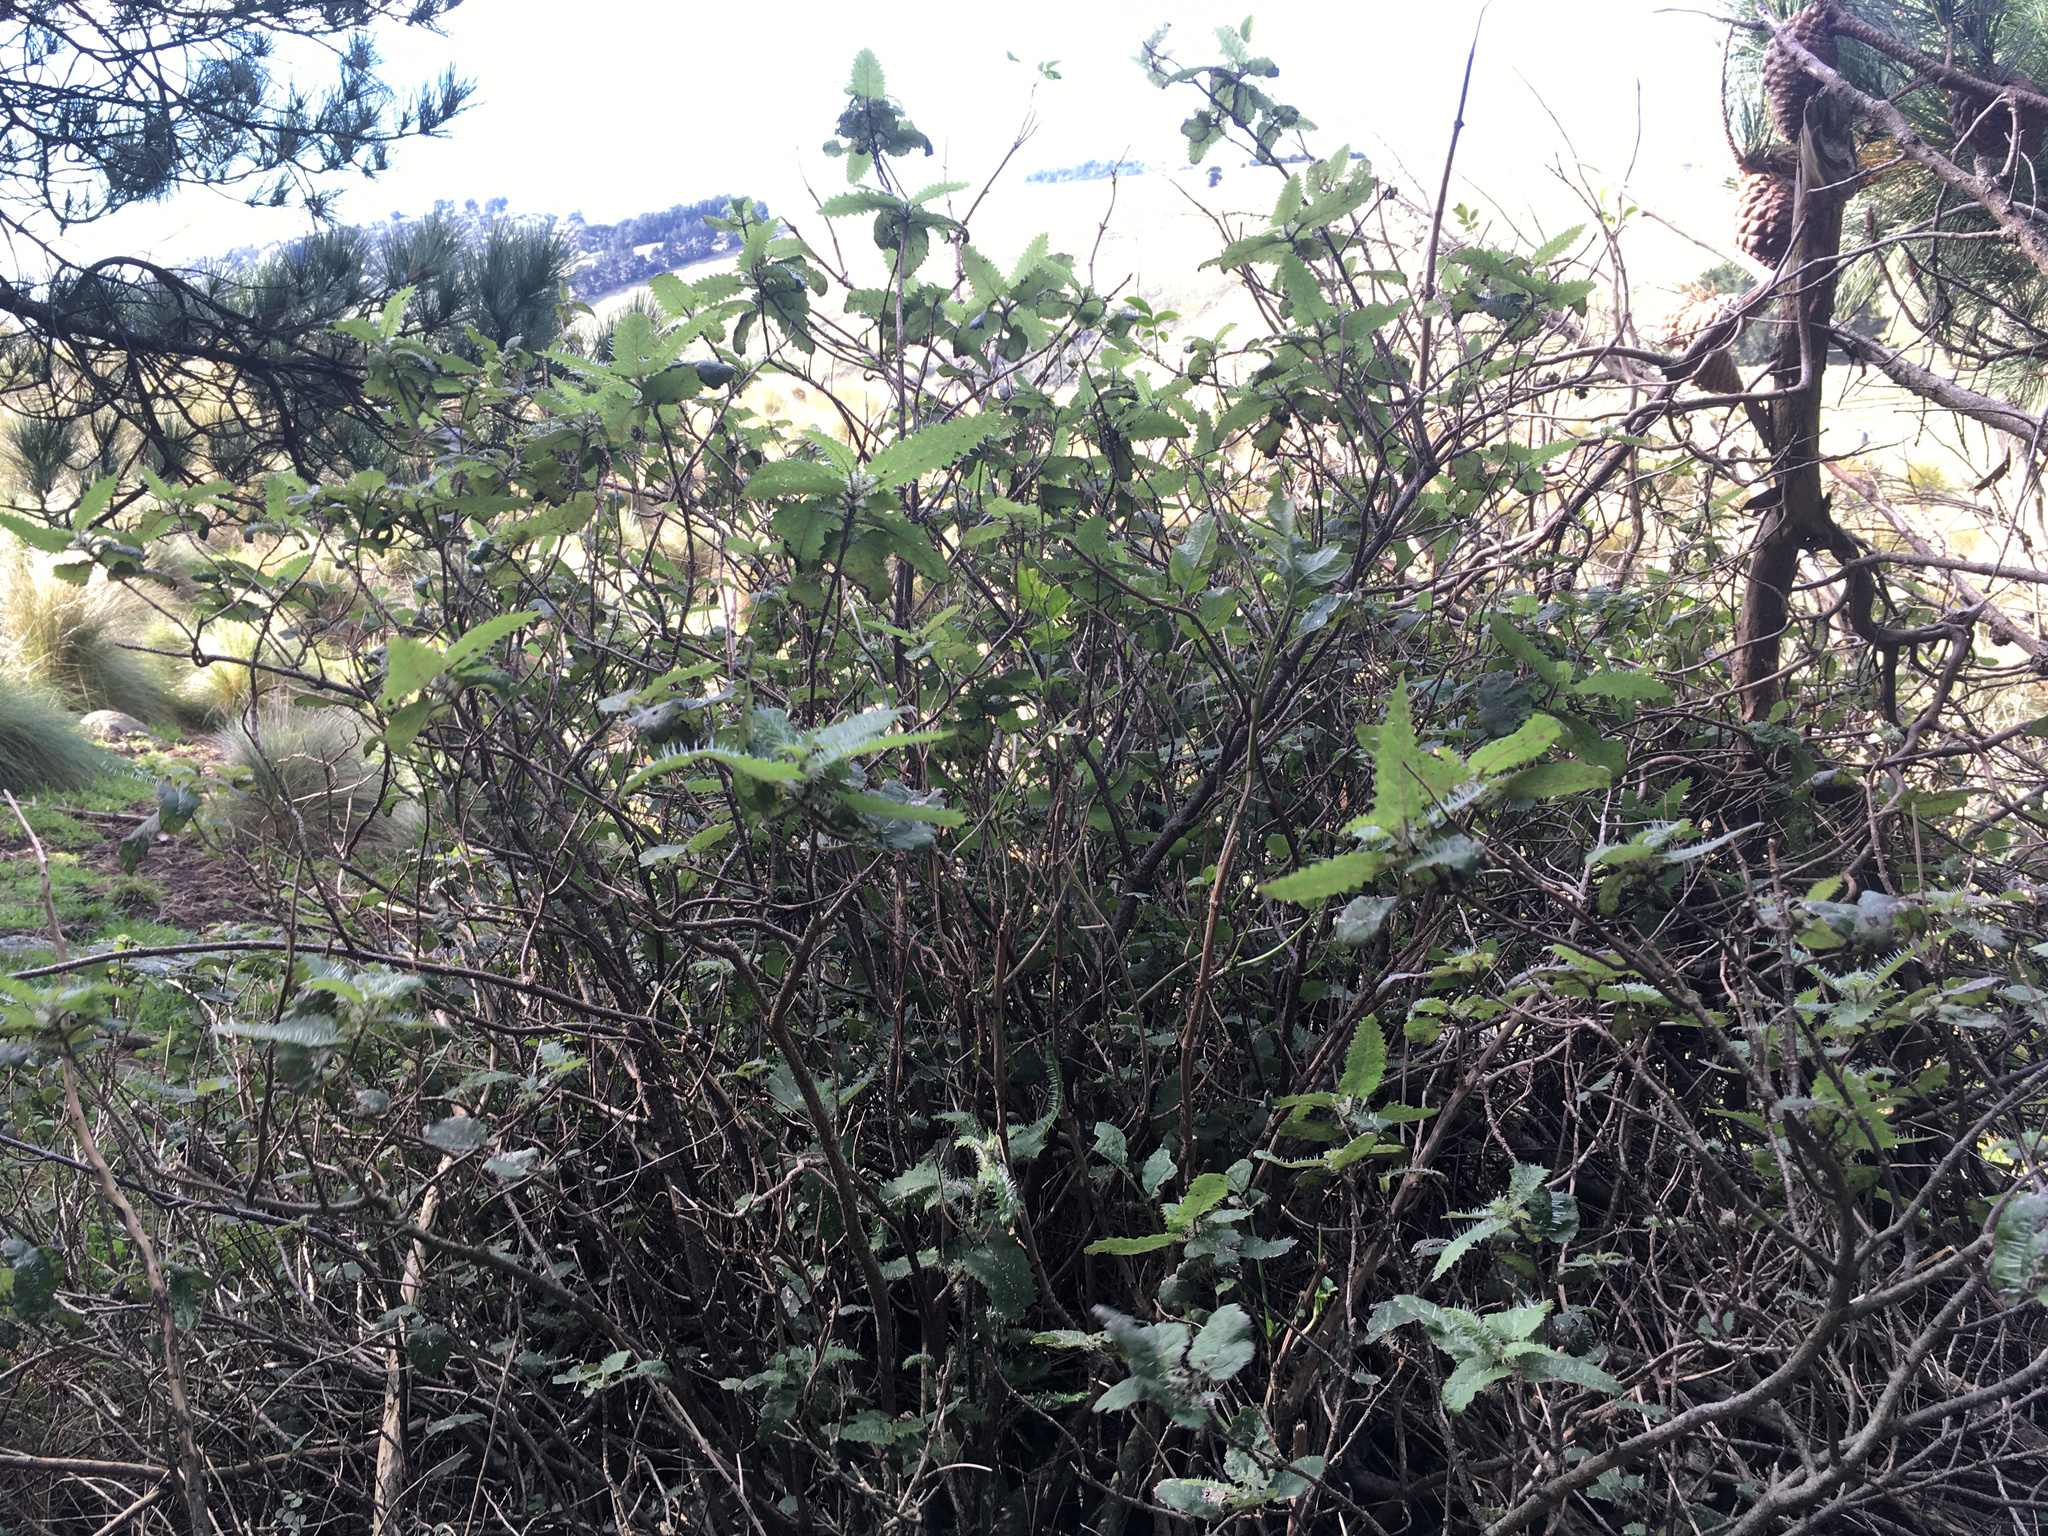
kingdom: Plantae
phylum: Tracheophyta
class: Magnoliopsida
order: Rosales
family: Urticaceae
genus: Urtica
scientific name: Urtica ferox
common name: Tree nettle
